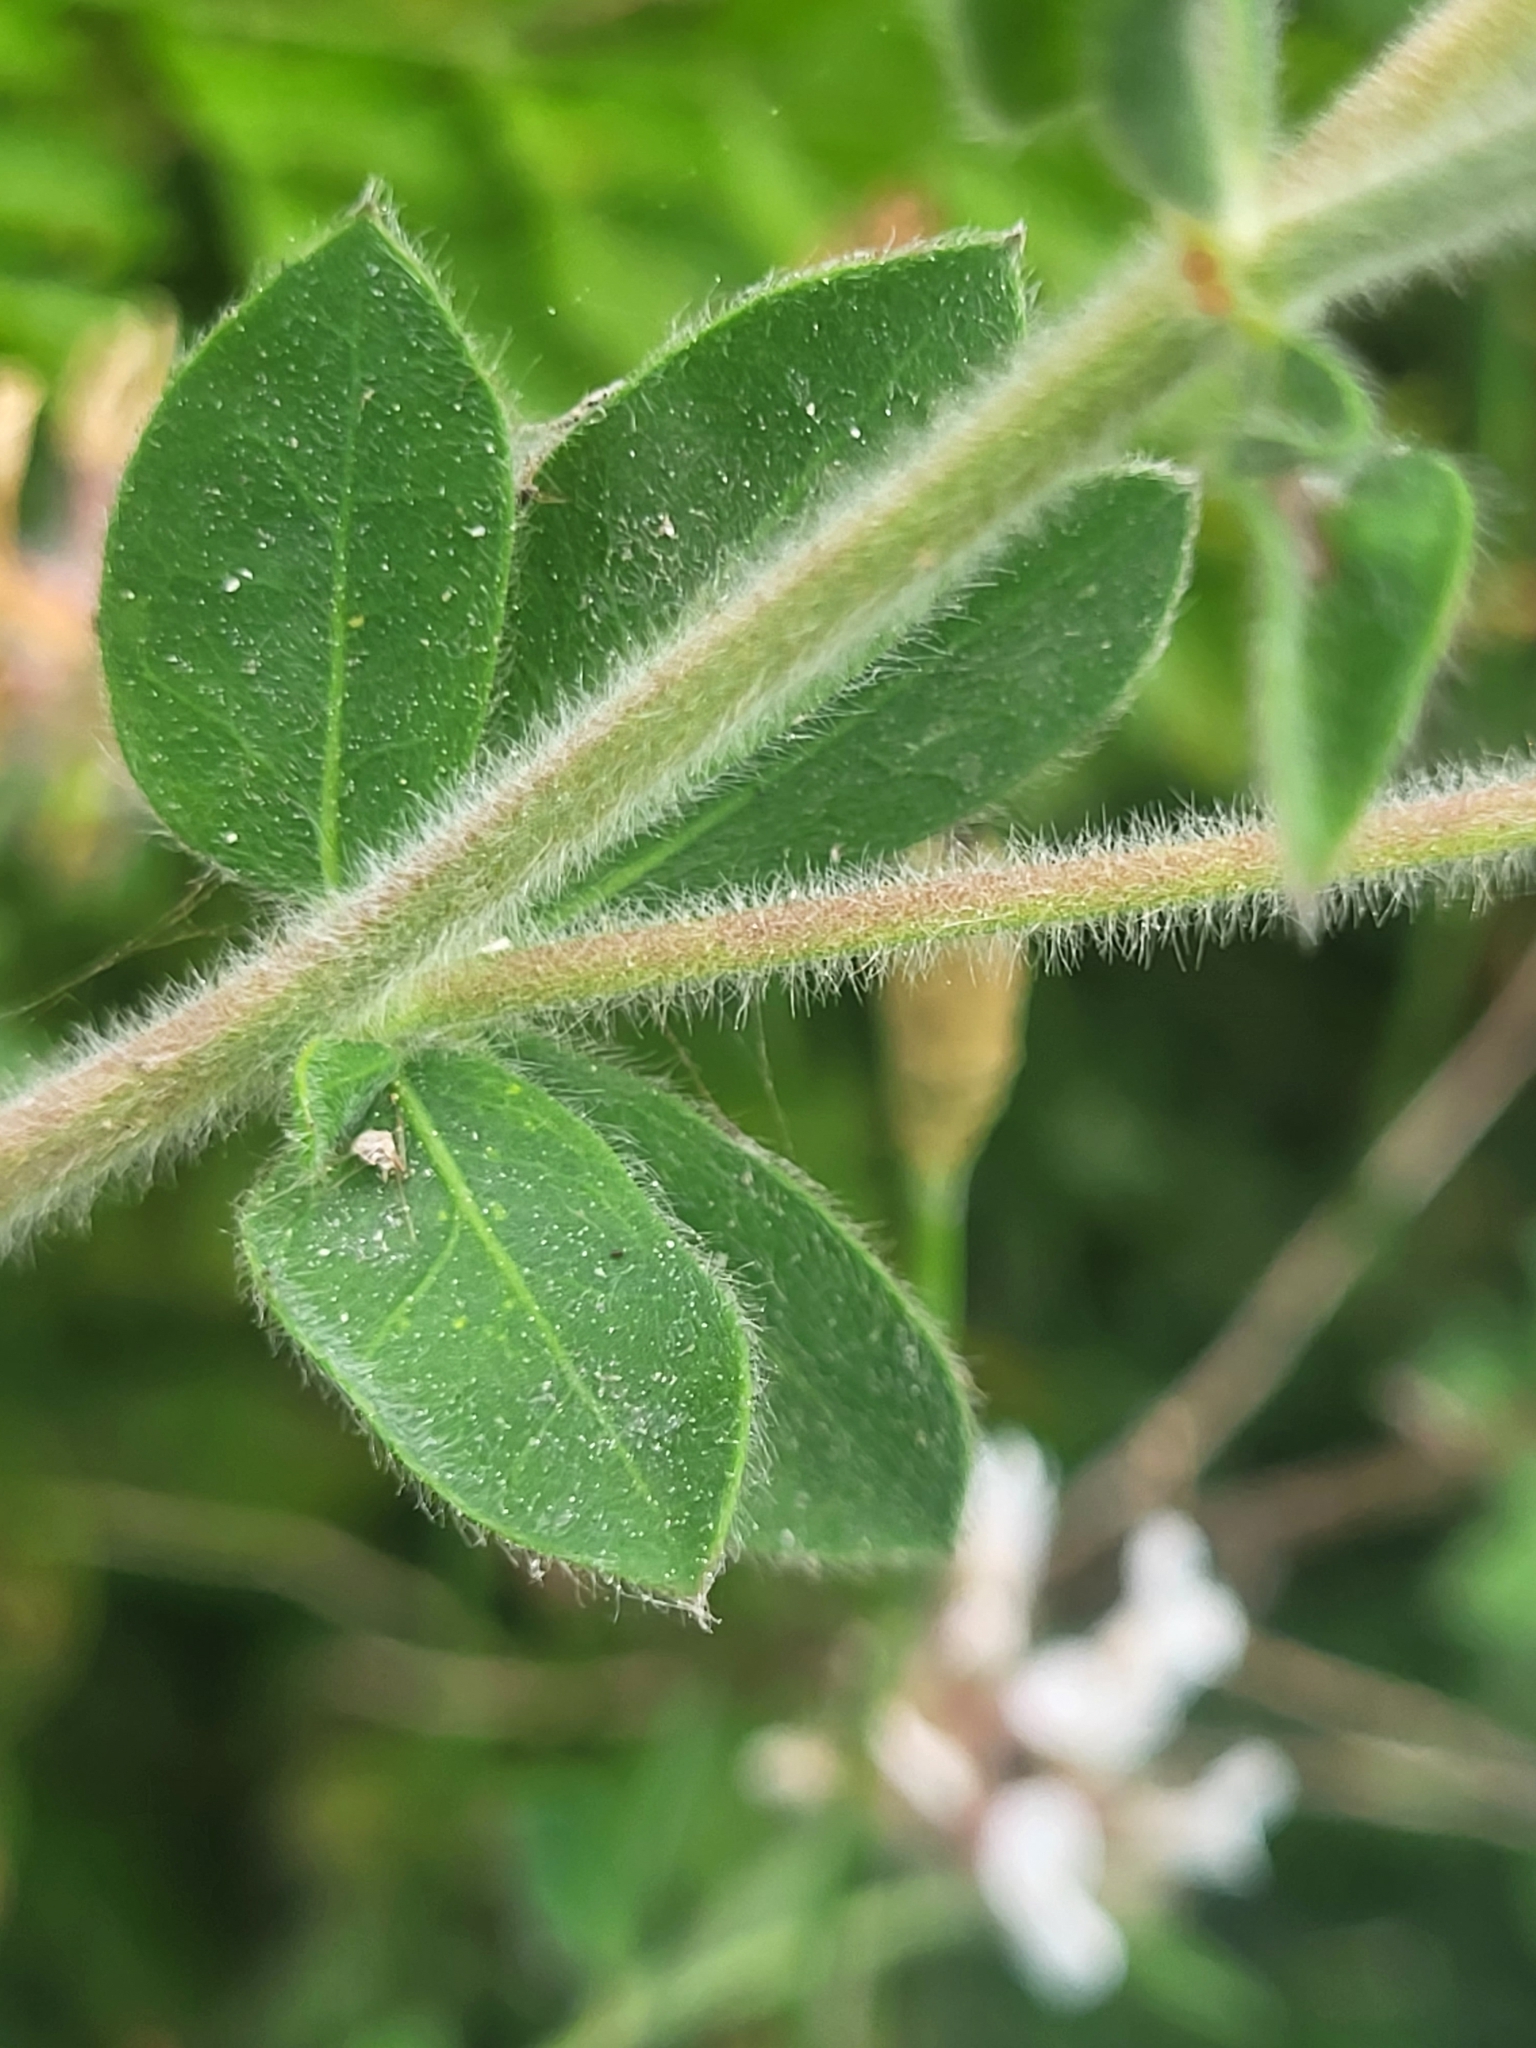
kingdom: Plantae
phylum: Tracheophyta
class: Magnoliopsida
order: Fabales
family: Fabaceae
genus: Lotus
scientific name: Lotus hirsutus
